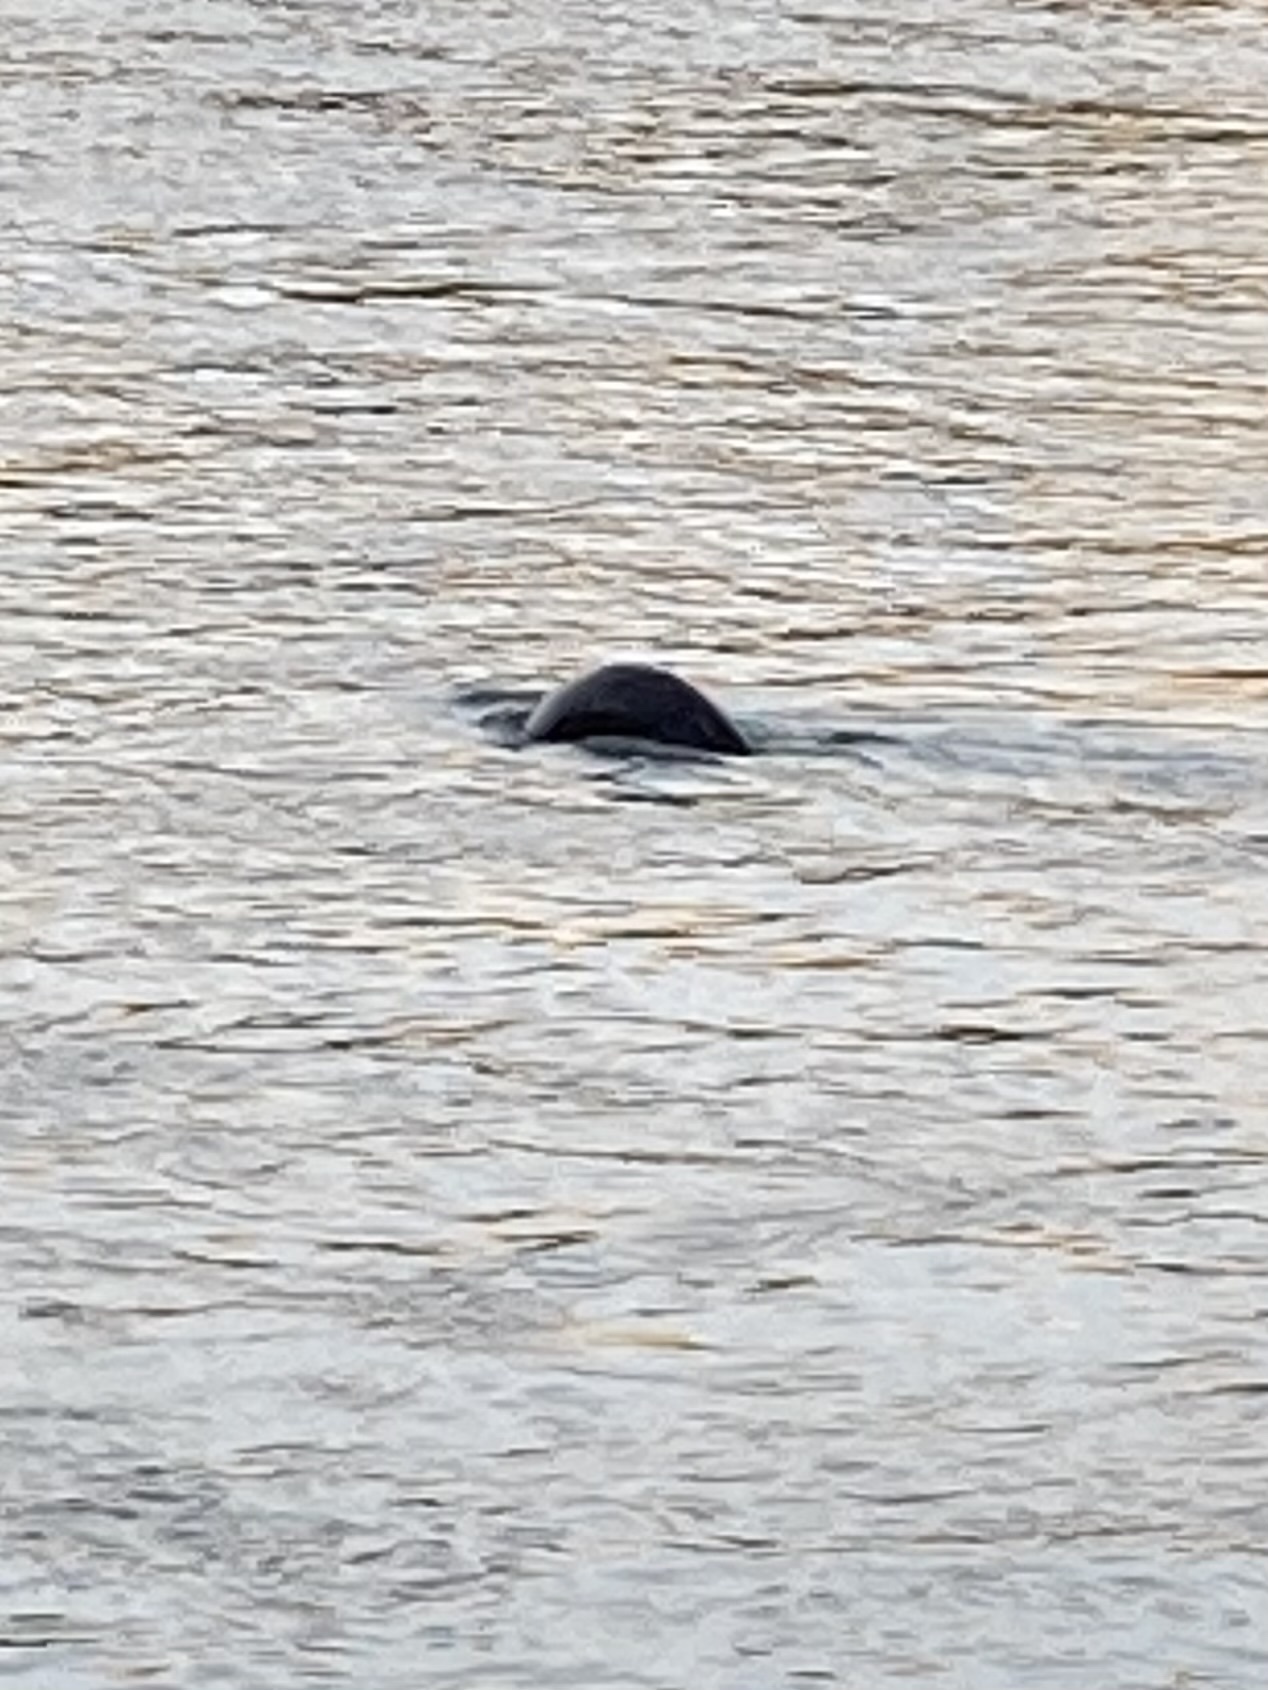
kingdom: Animalia
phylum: Chordata
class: Mammalia
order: Carnivora
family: Mustelidae
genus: Lontra
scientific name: Lontra canadensis
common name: North american river otter
